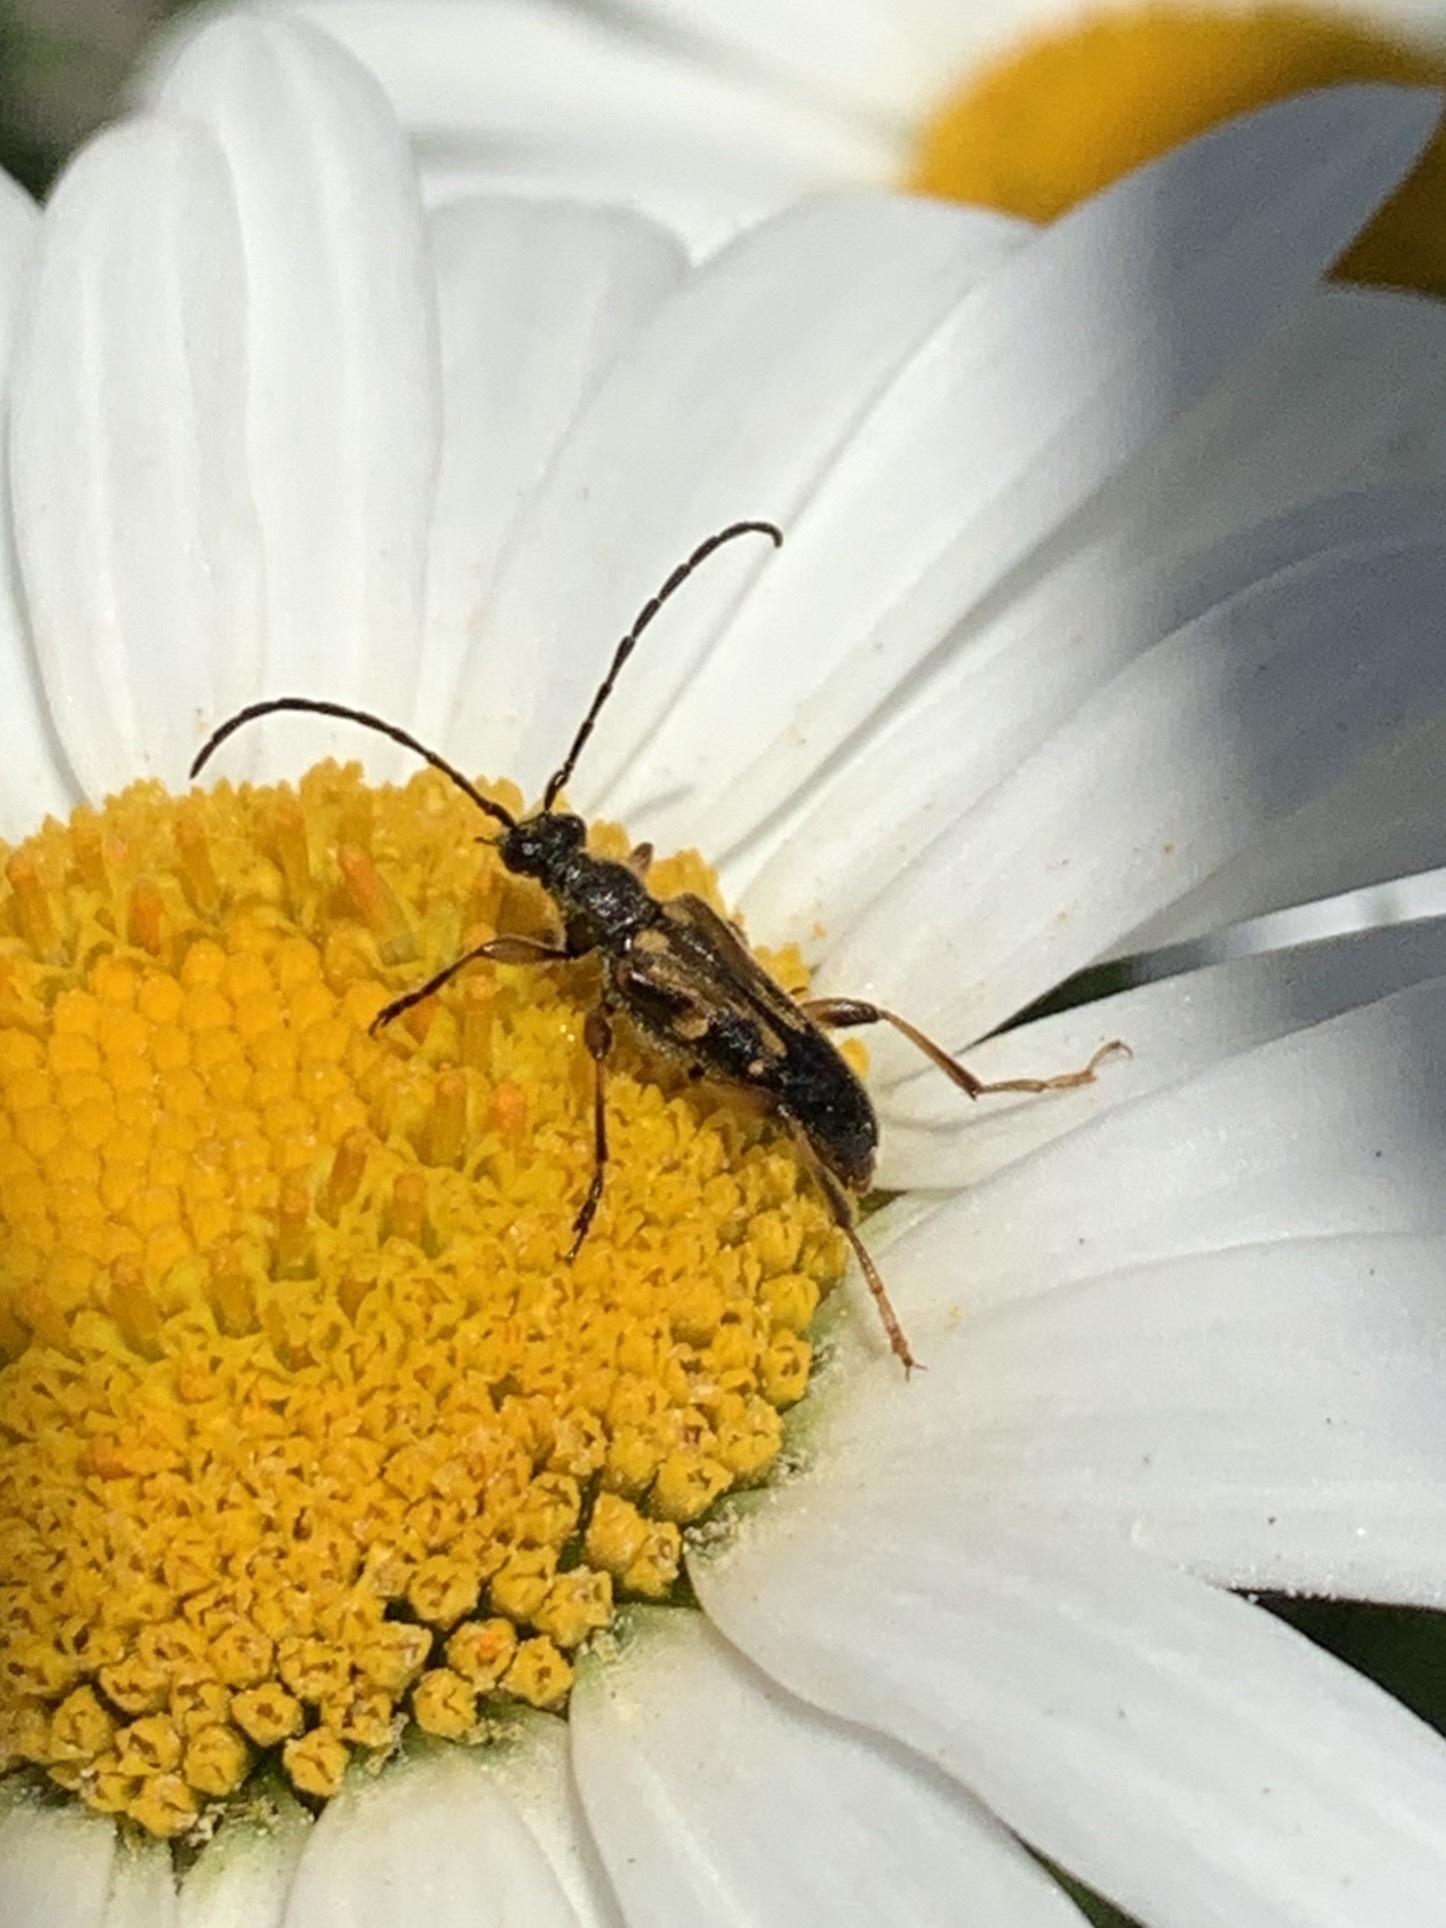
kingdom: Animalia
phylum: Arthropoda
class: Insecta
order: Coleoptera
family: Cerambycidae
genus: Xestoleptura
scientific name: Xestoleptura crassipes
